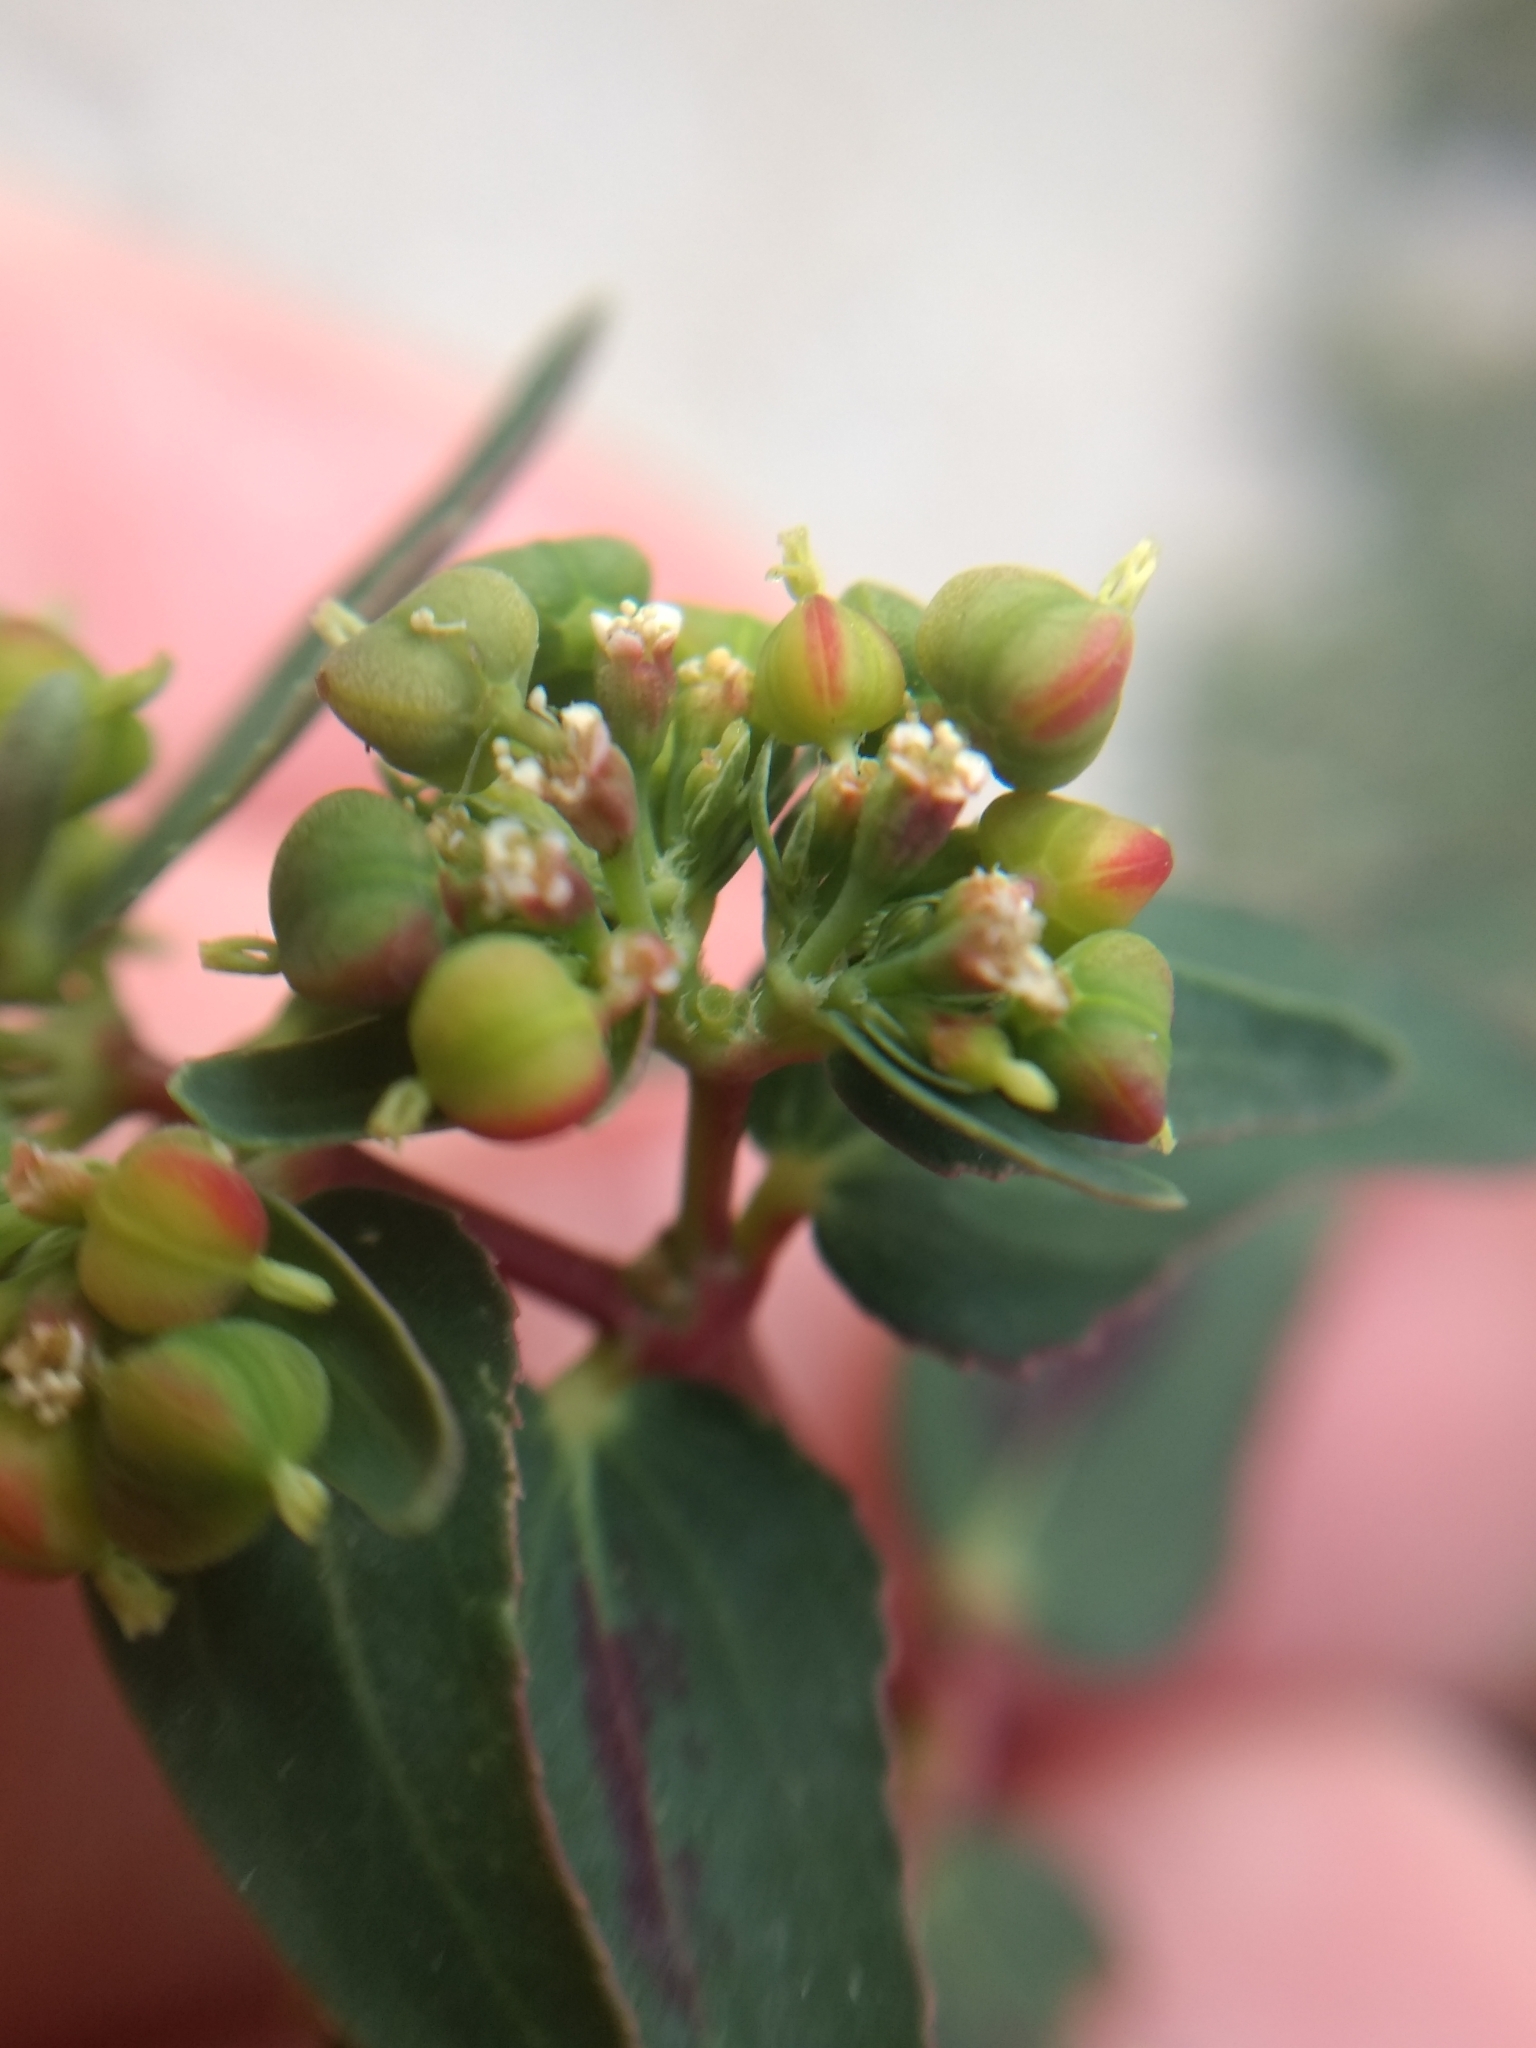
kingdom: Plantae
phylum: Tracheophyta
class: Magnoliopsida
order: Malpighiales
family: Euphorbiaceae
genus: Euphorbia
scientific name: Euphorbia hyssopifolia
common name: Hyssopleaf sandmat
